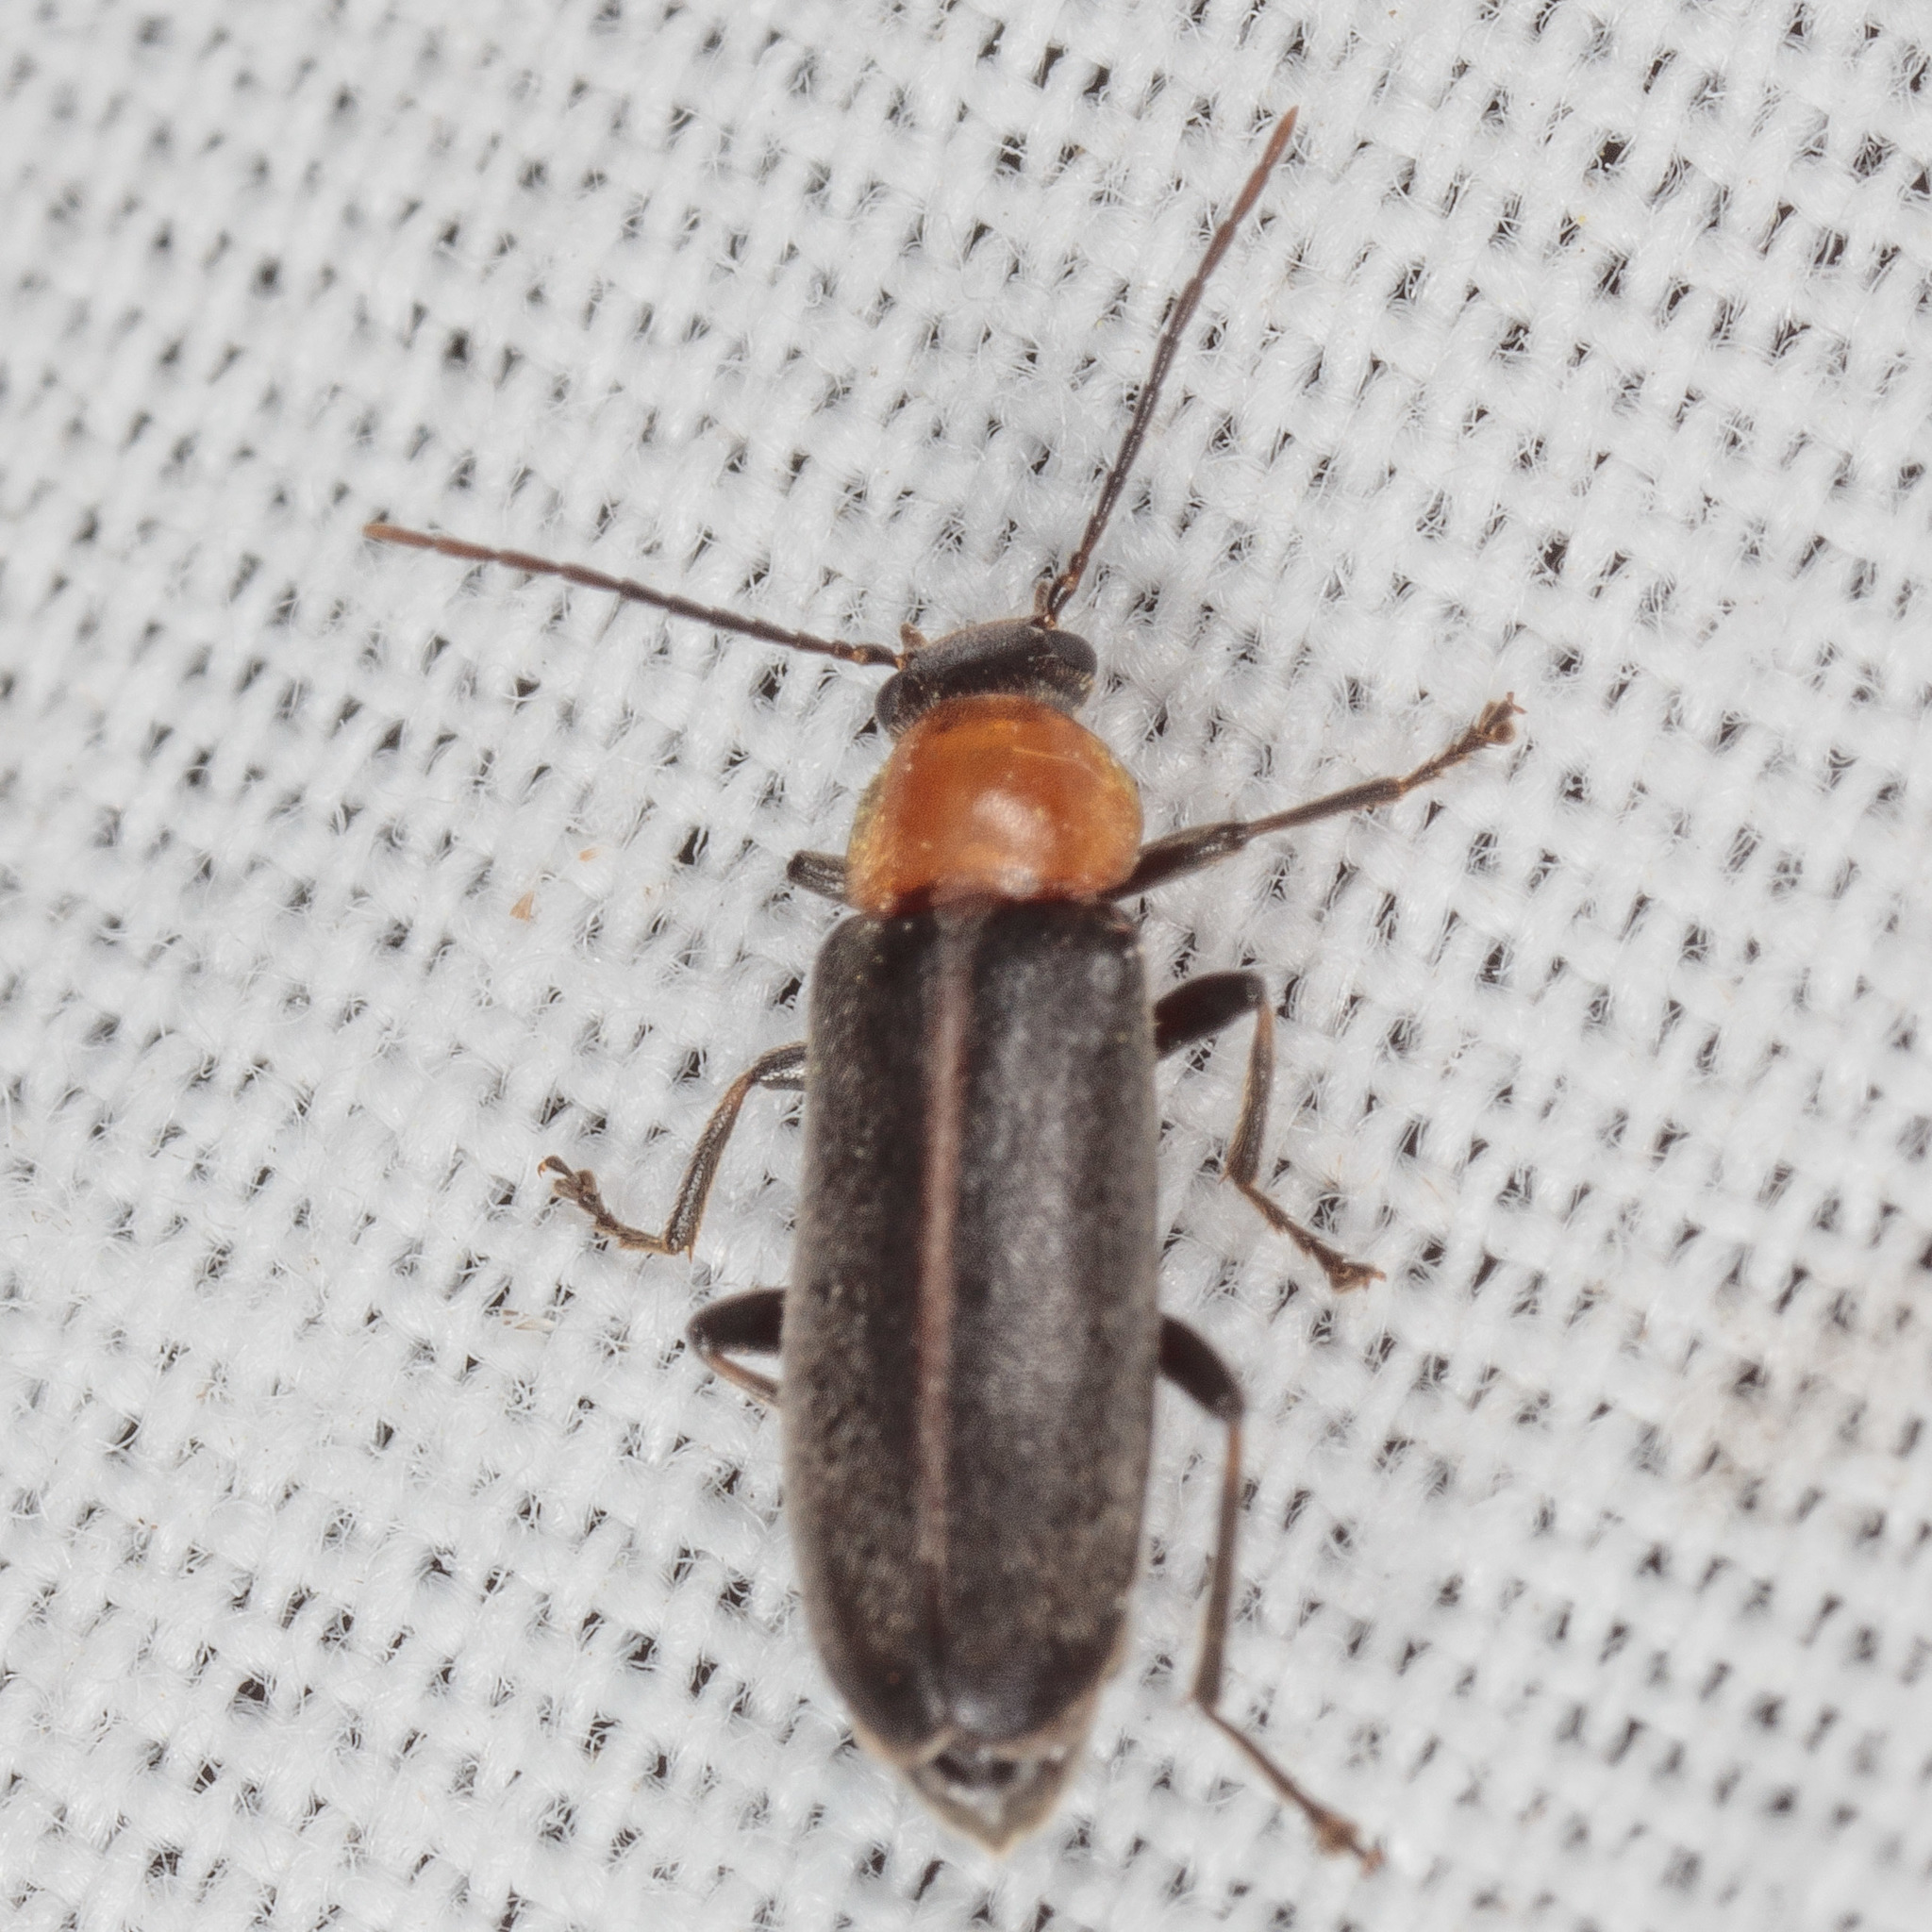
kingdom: Animalia
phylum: Arthropoda
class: Insecta
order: Coleoptera
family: Melandryidae
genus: Osphya
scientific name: Osphya varians
